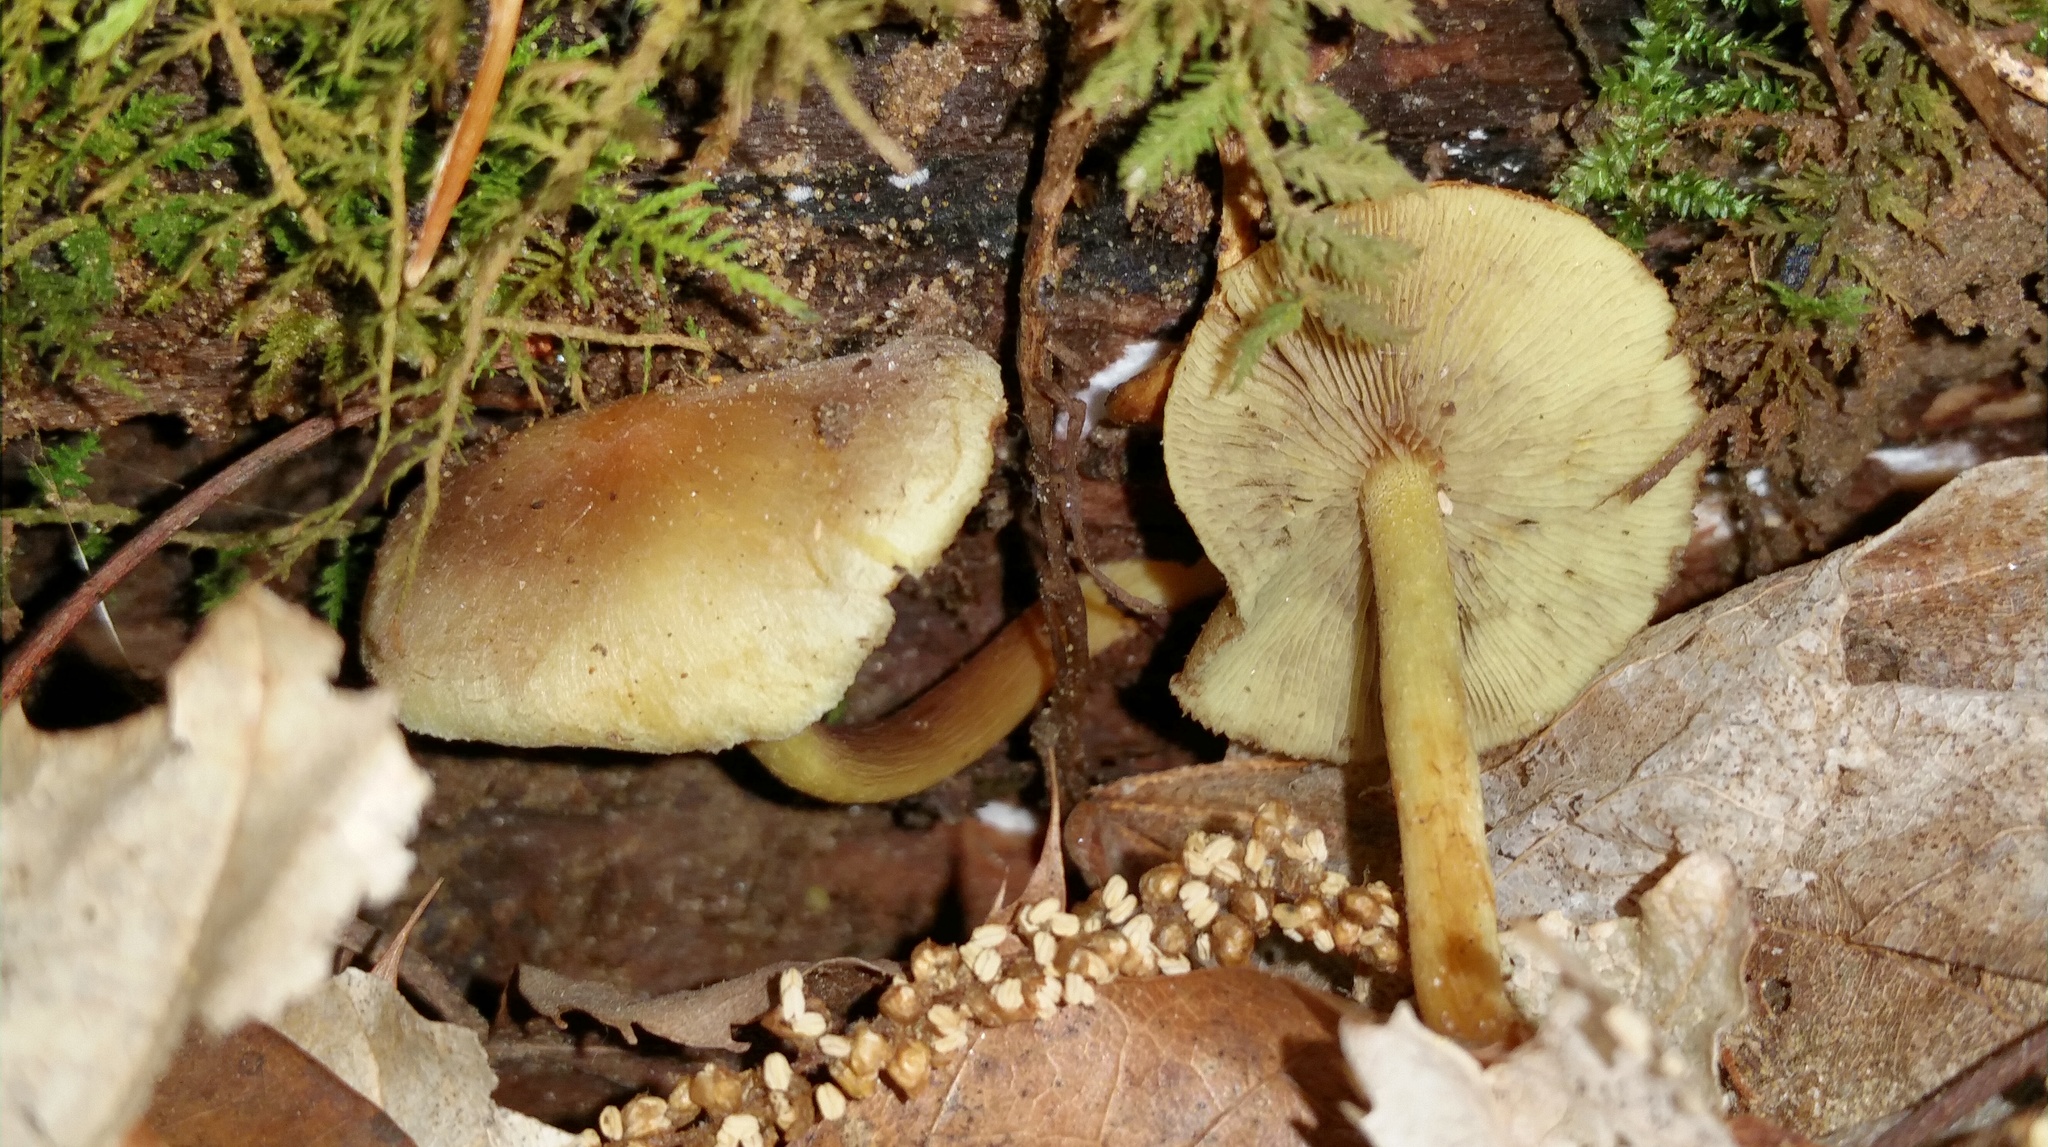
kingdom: Fungi
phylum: Basidiomycota
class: Agaricomycetes
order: Agaricales
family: Strophariaceae
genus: Hypholoma
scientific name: Hypholoma fasciculare
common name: Sulphur tuft
